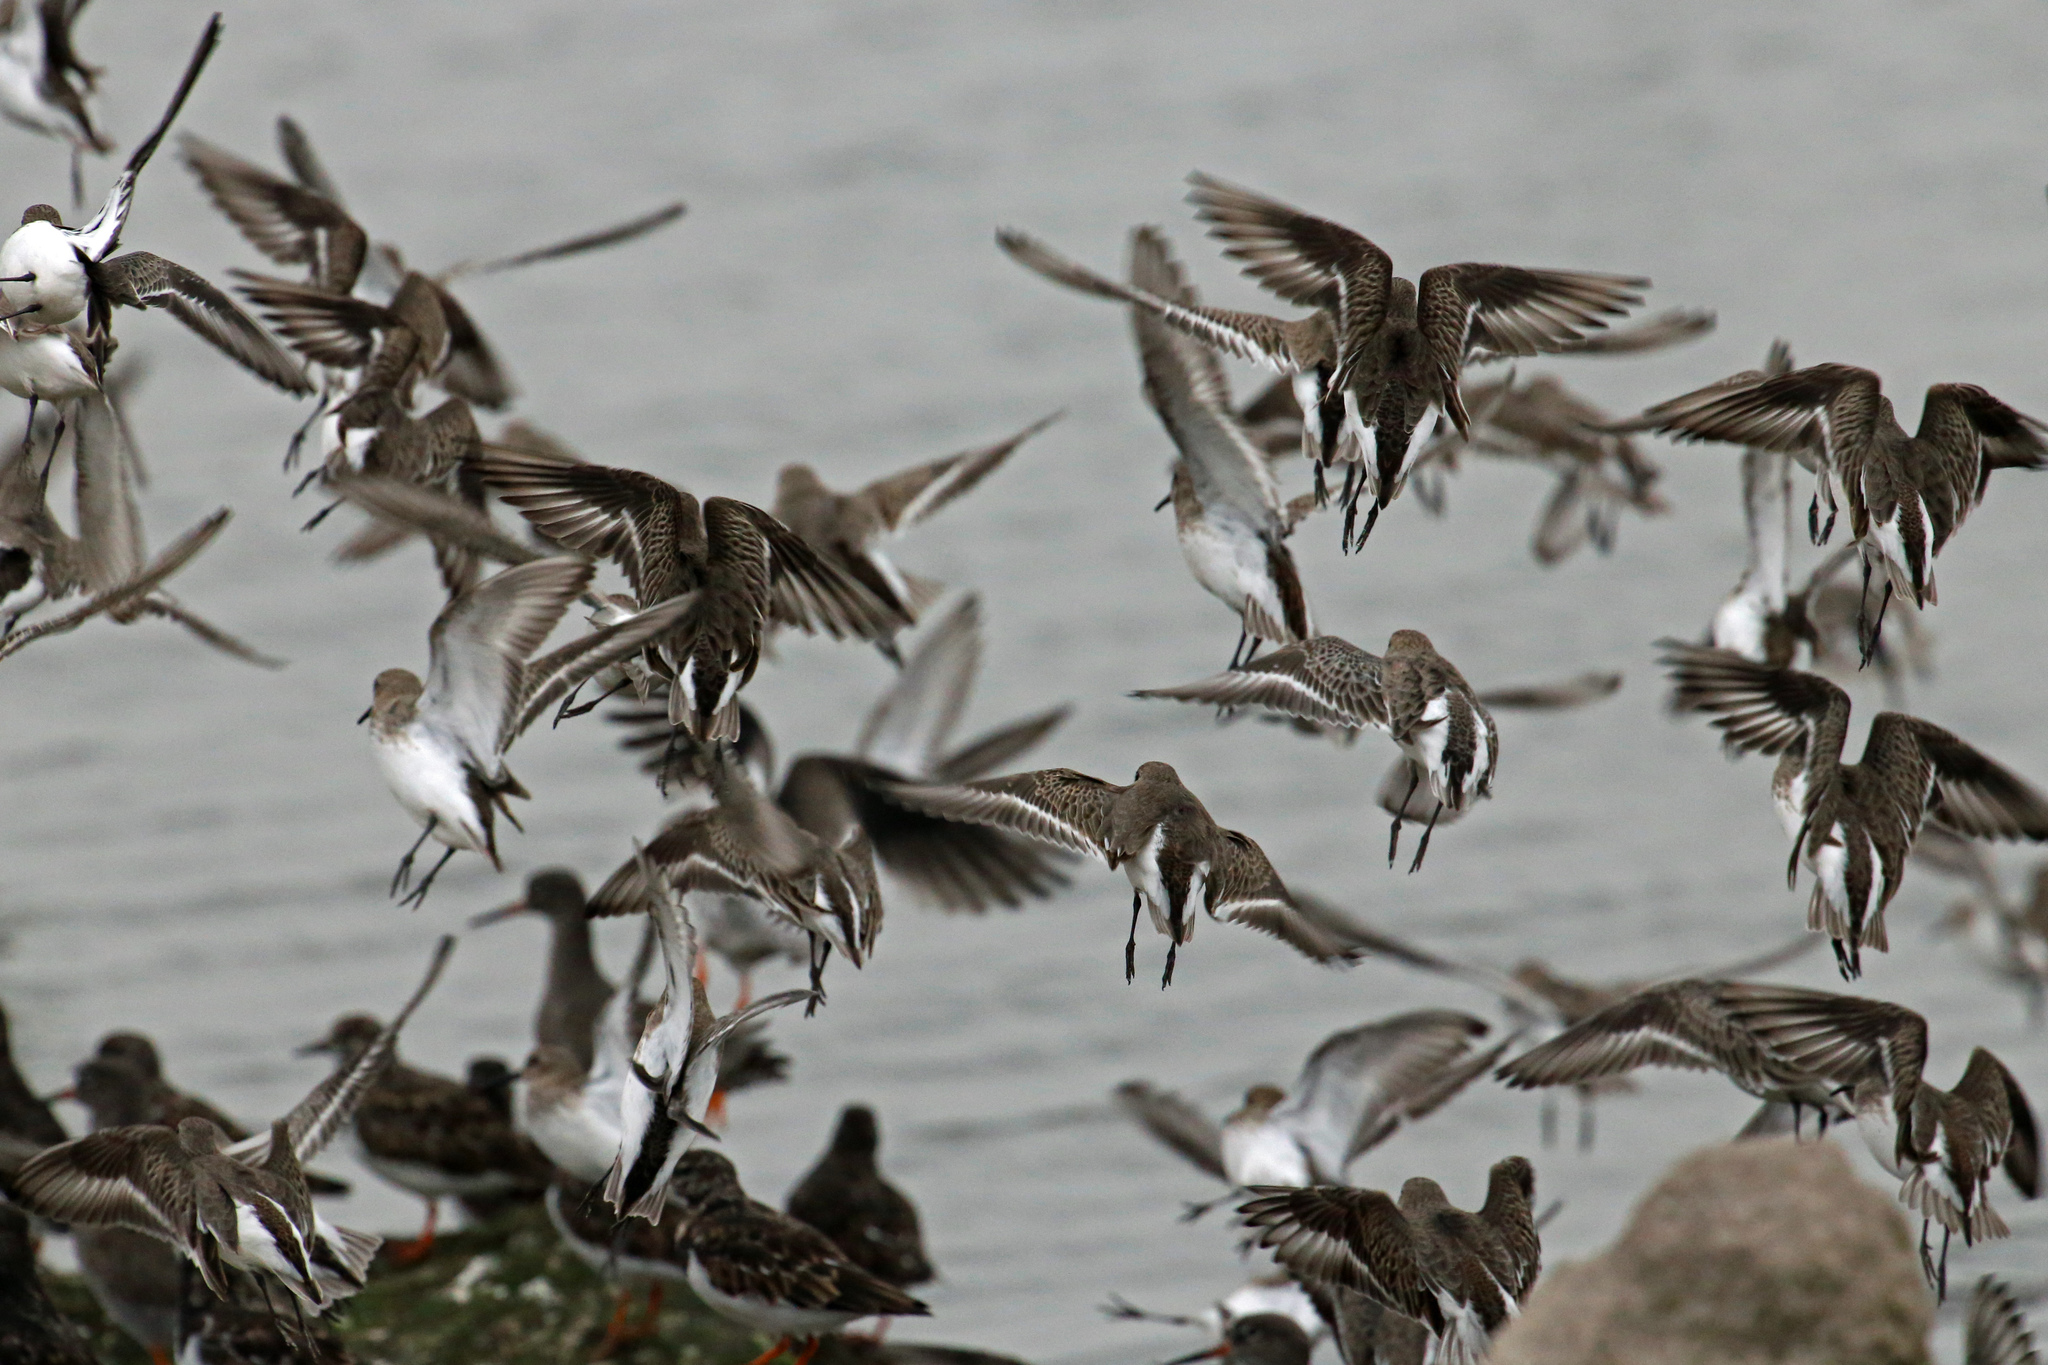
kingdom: Animalia
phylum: Chordata
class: Aves
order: Charadriiformes
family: Scolopacidae
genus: Calidris
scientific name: Calidris alpina
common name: Dunlin
